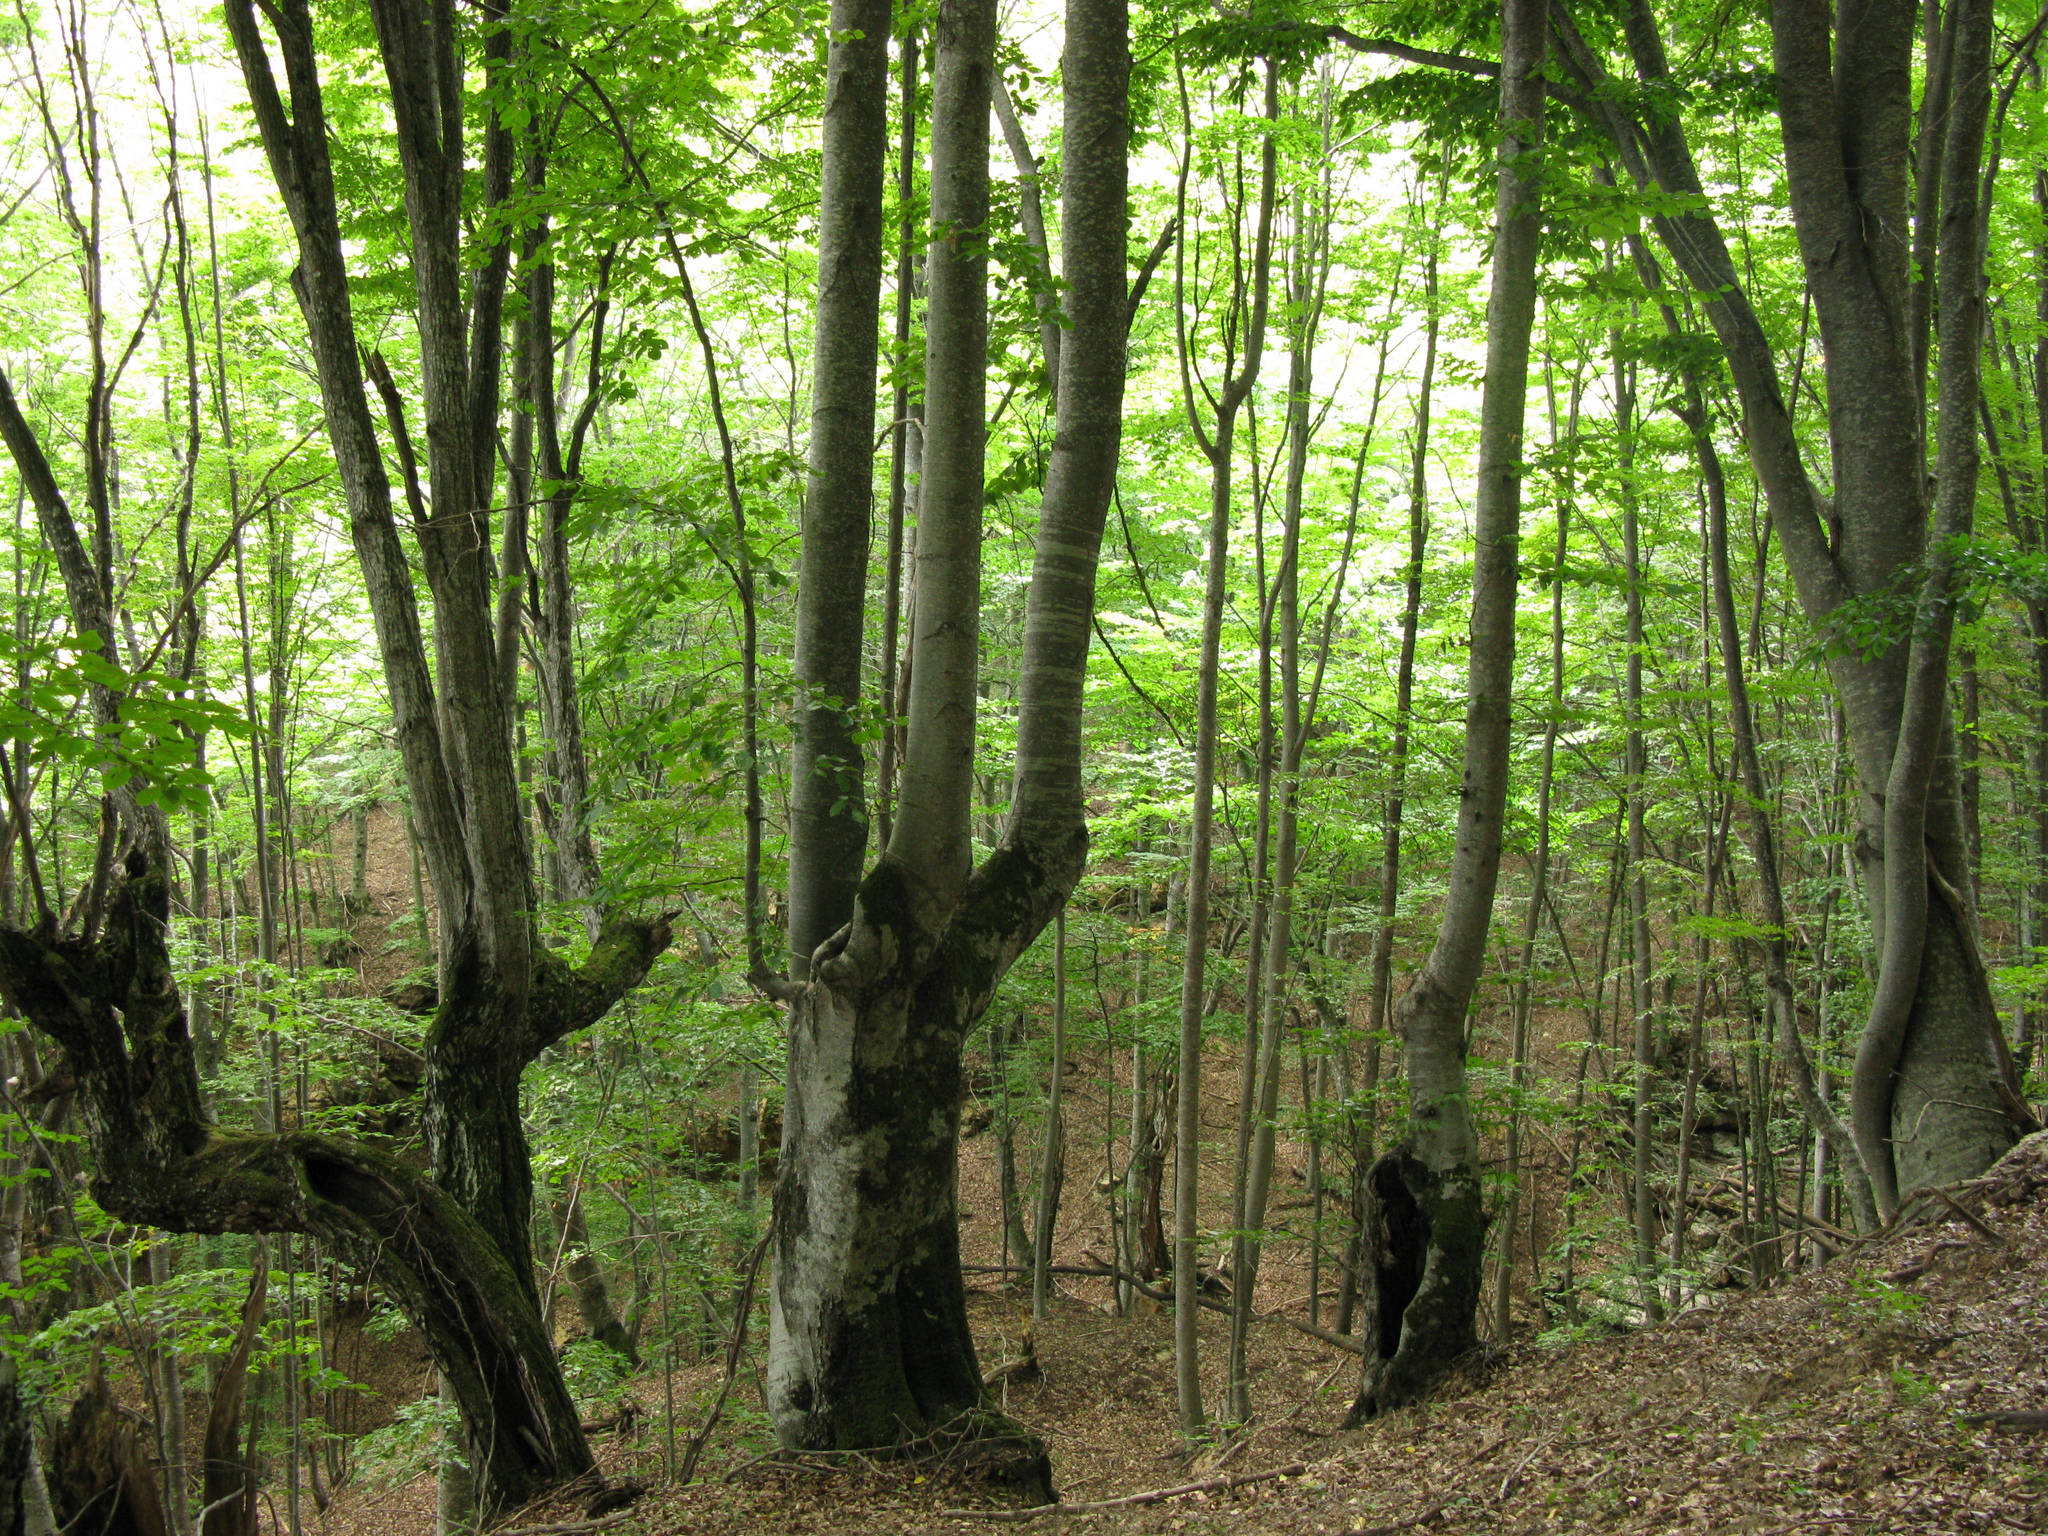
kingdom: Plantae
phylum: Tracheophyta
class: Magnoliopsida
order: Fagales
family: Fagaceae
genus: Fagus
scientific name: Fagus taurica
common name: Crimean beech
